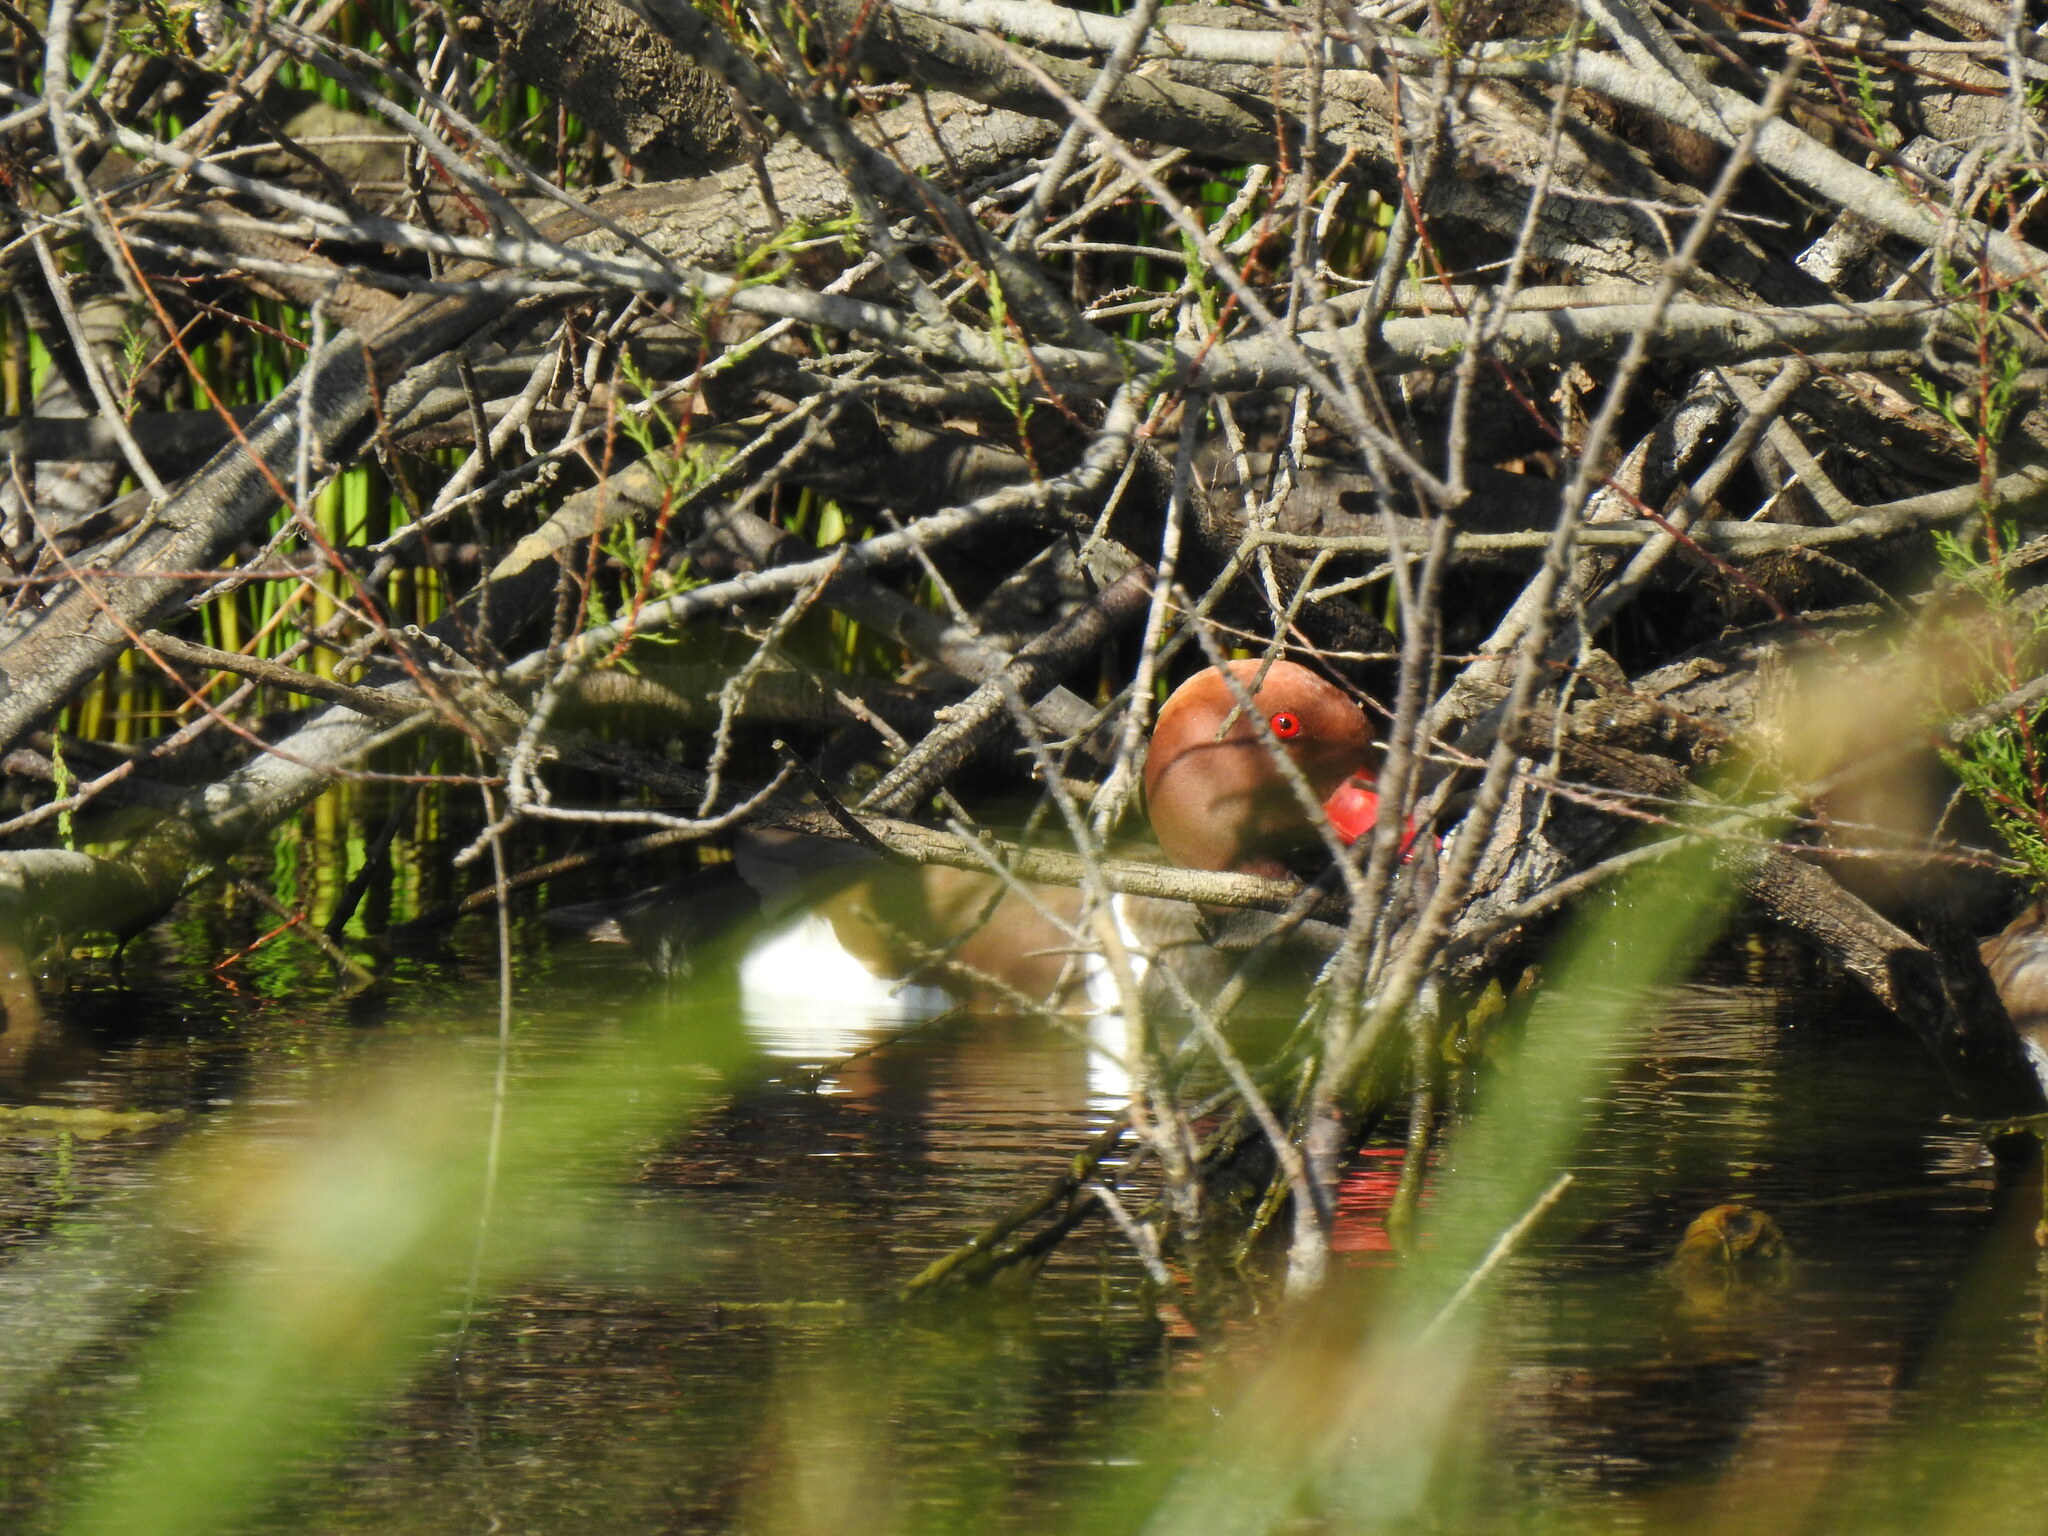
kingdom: Animalia
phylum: Chordata
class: Aves
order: Anseriformes
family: Anatidae
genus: Netta
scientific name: Netta rufina
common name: Red-crested pochard
